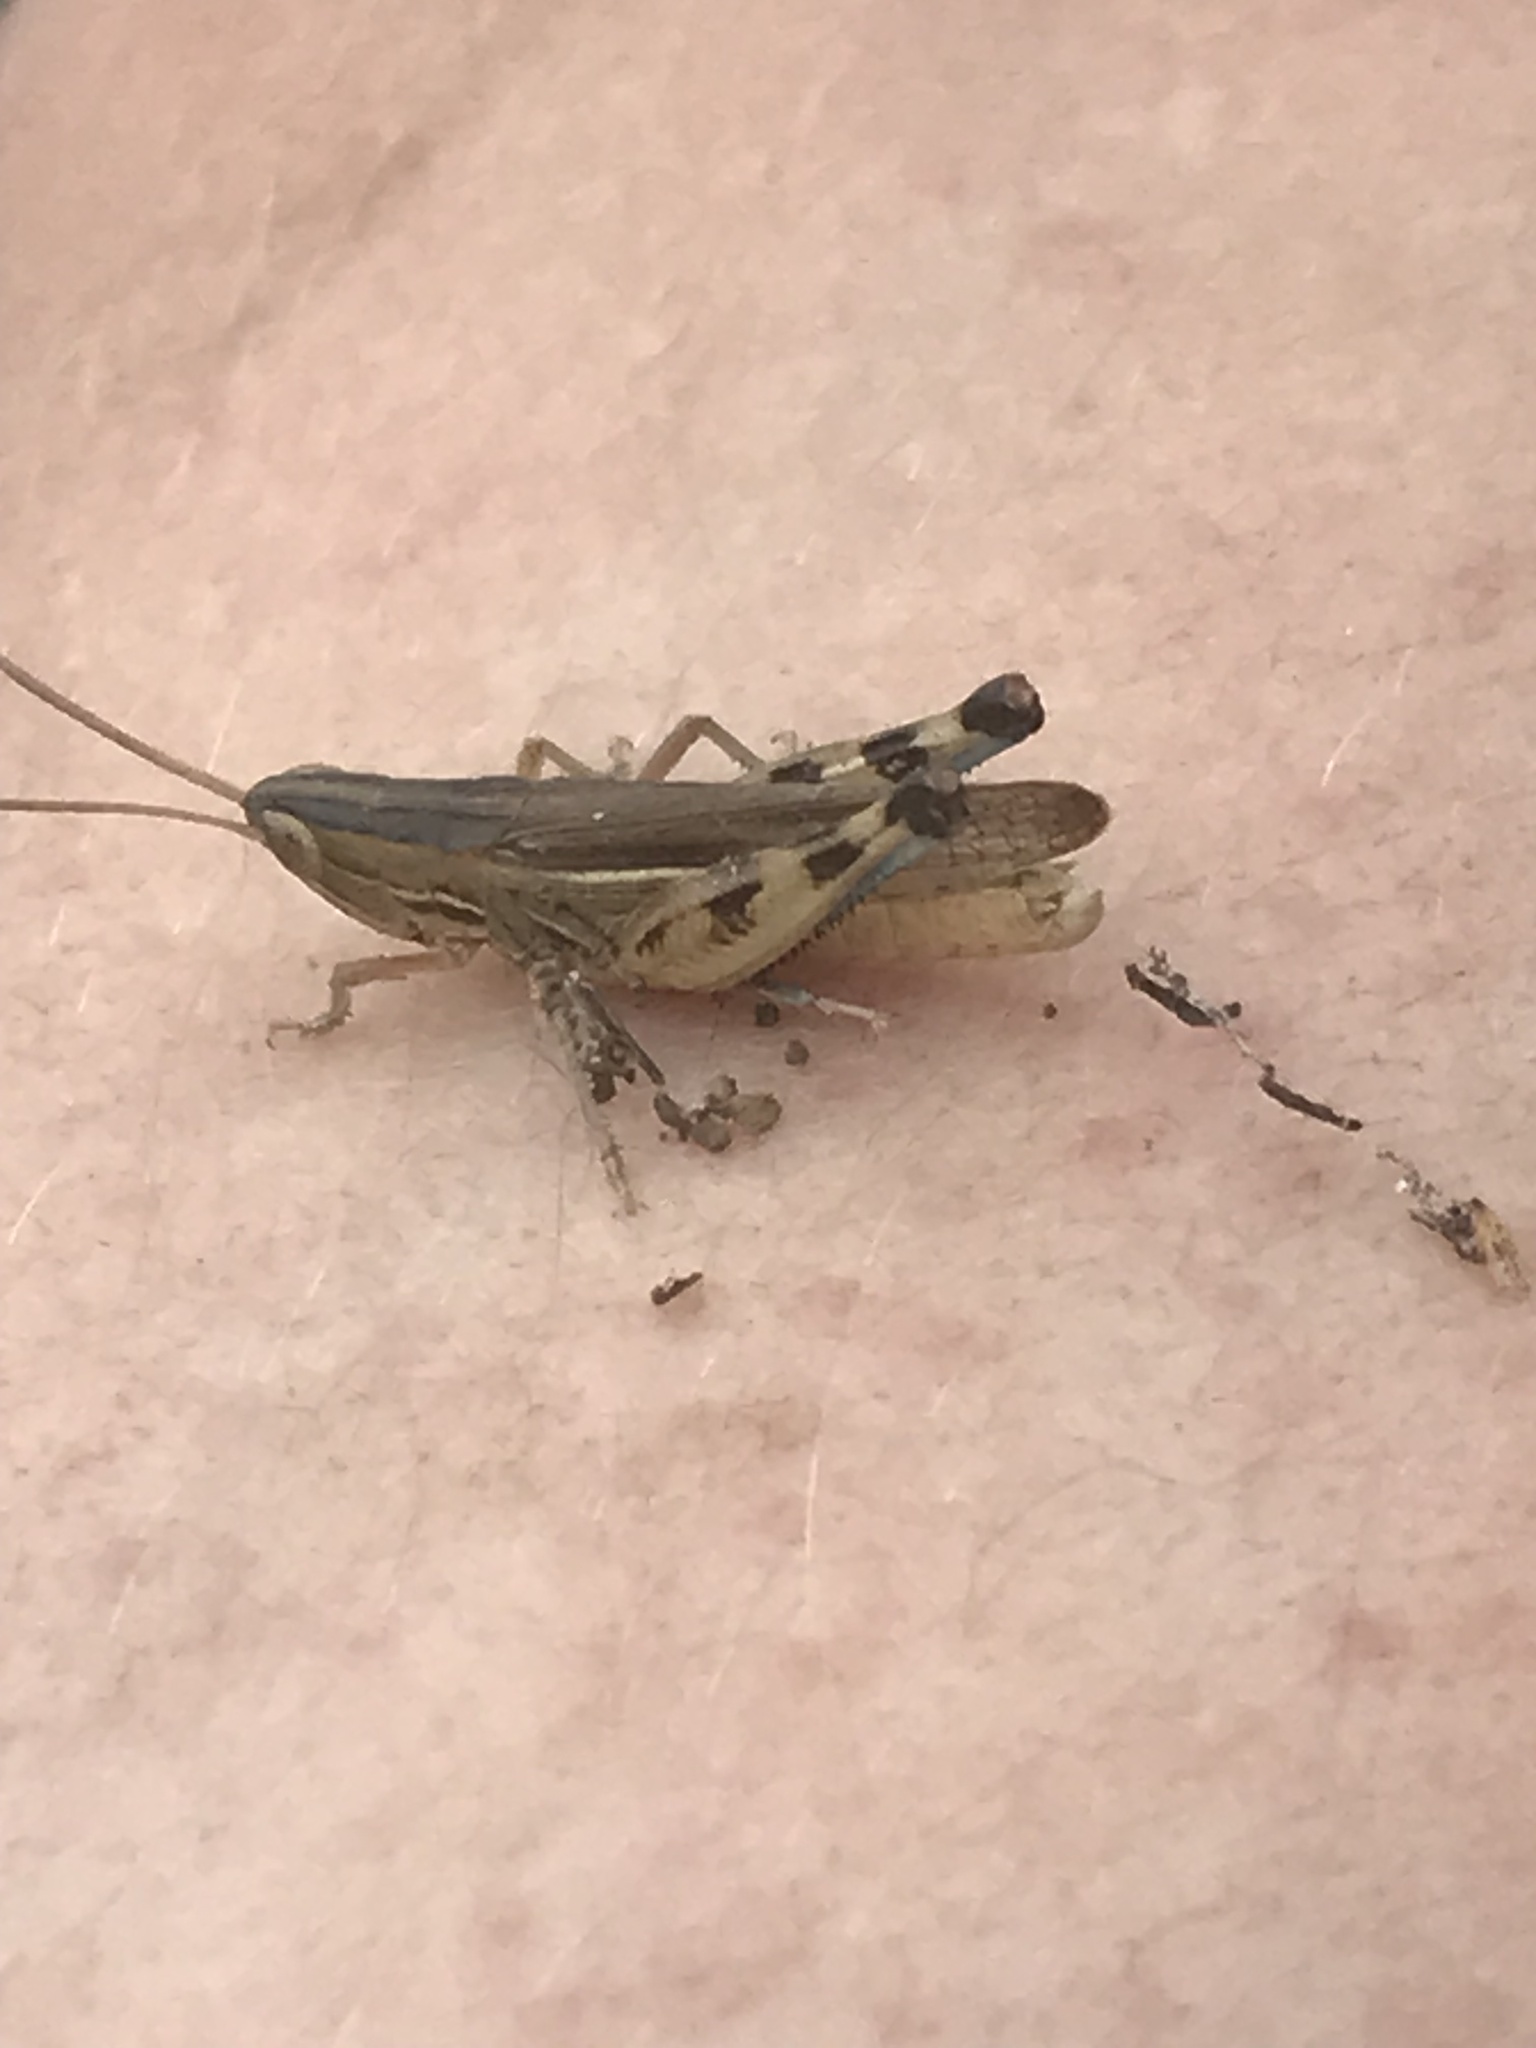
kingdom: Animalia
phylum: Arthropoda
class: Insecta
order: Orthoptera
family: Acrididae
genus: Amphitornus
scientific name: Amphitornus coloradus
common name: Striped grasshopper
